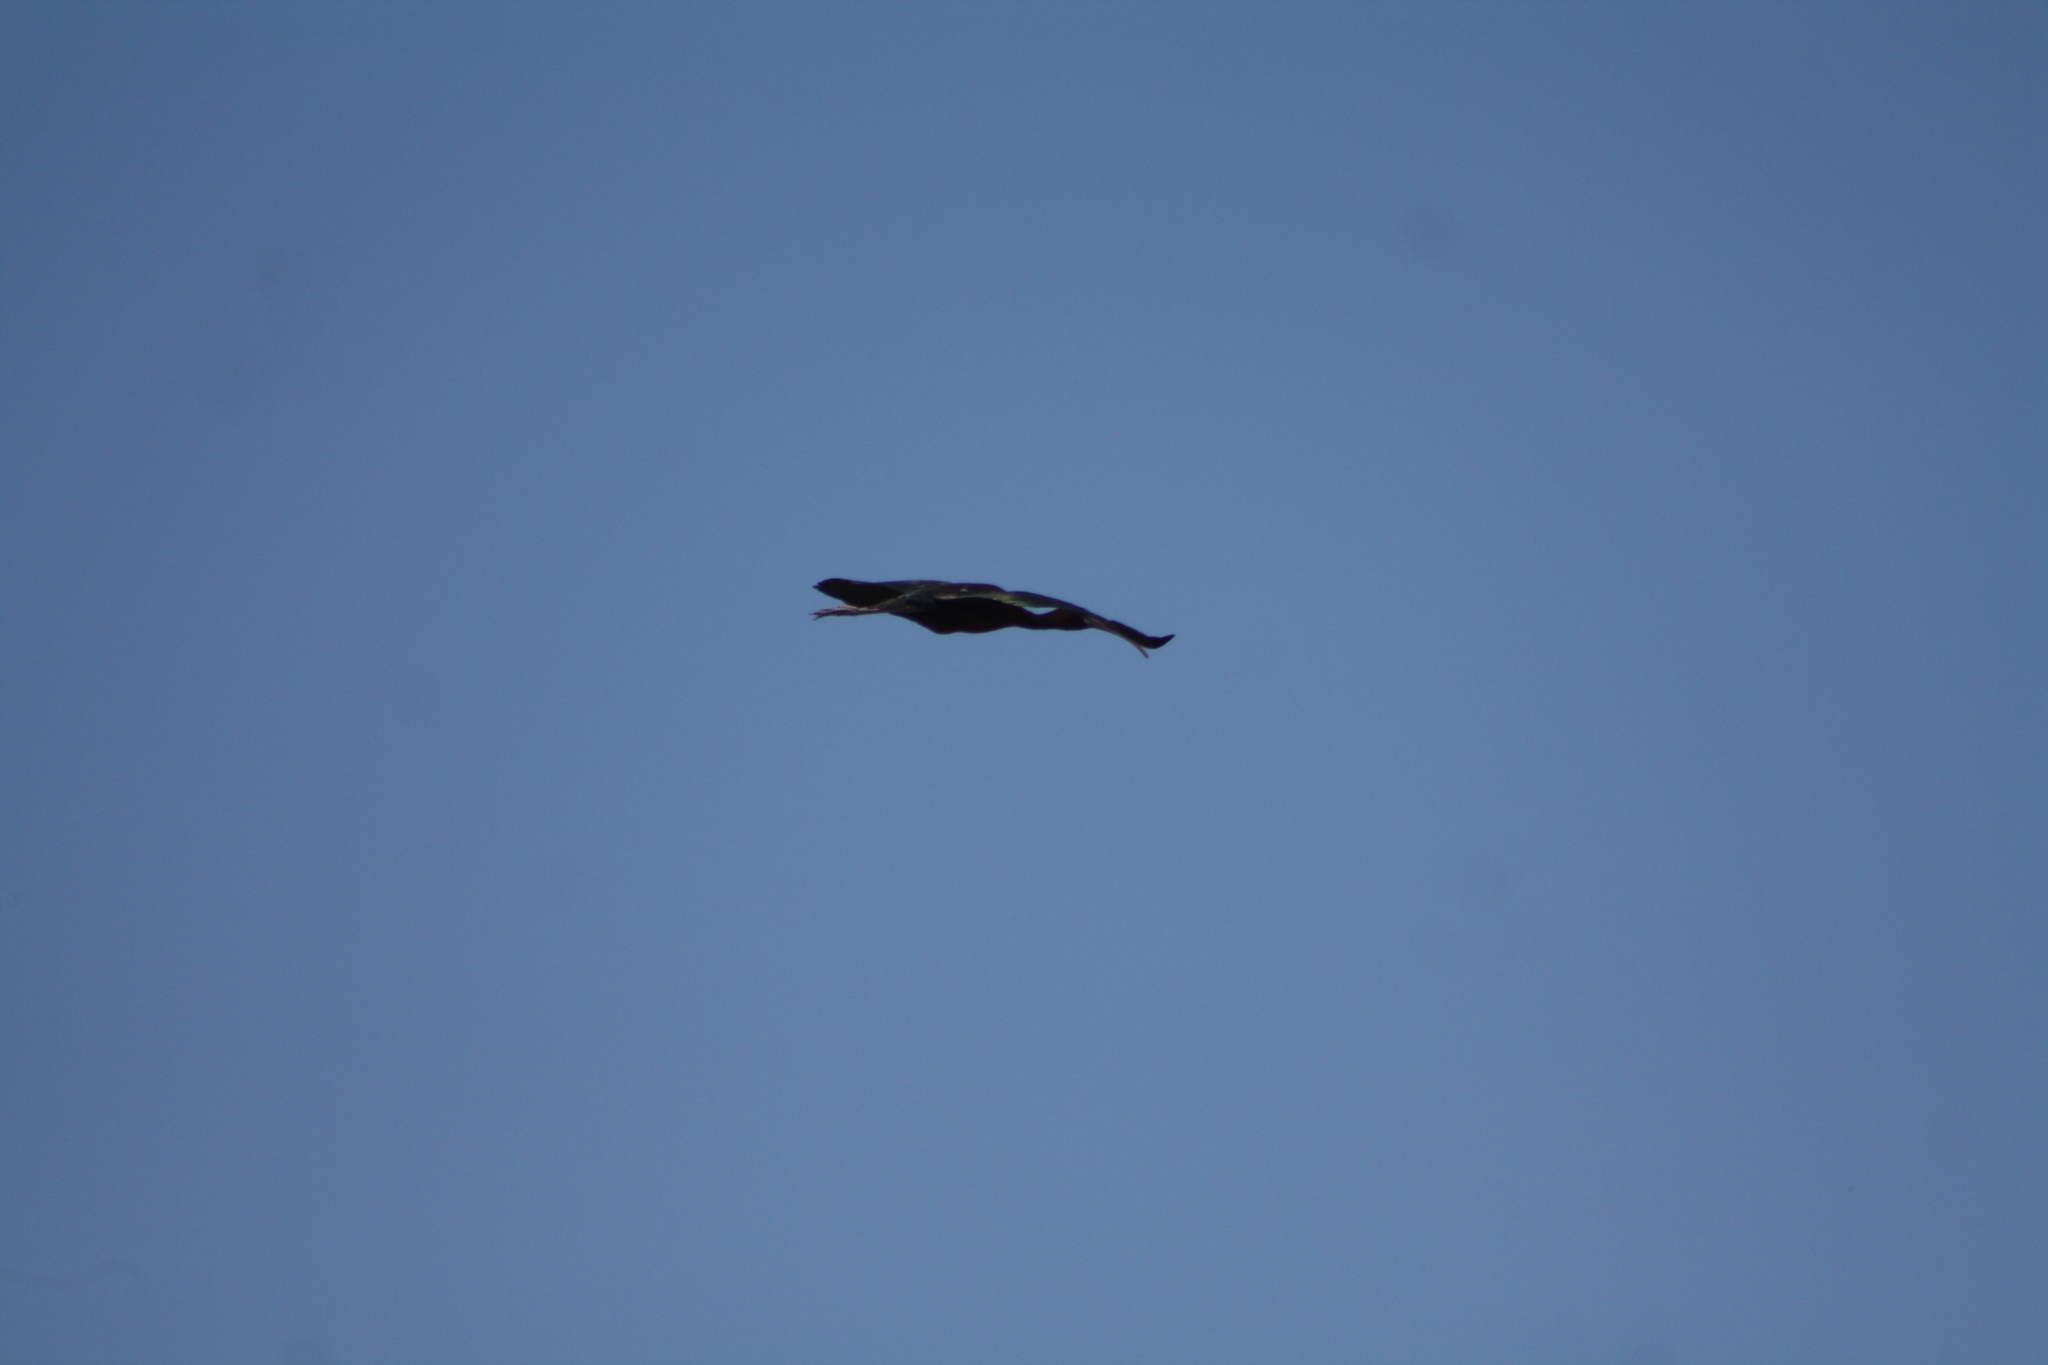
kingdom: Animalia
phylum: Chordata
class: Aves
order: Pelecaniformes
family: Threskiornithidae
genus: Plegadis
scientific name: Plegadis falcinellus
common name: Glossy ibis
